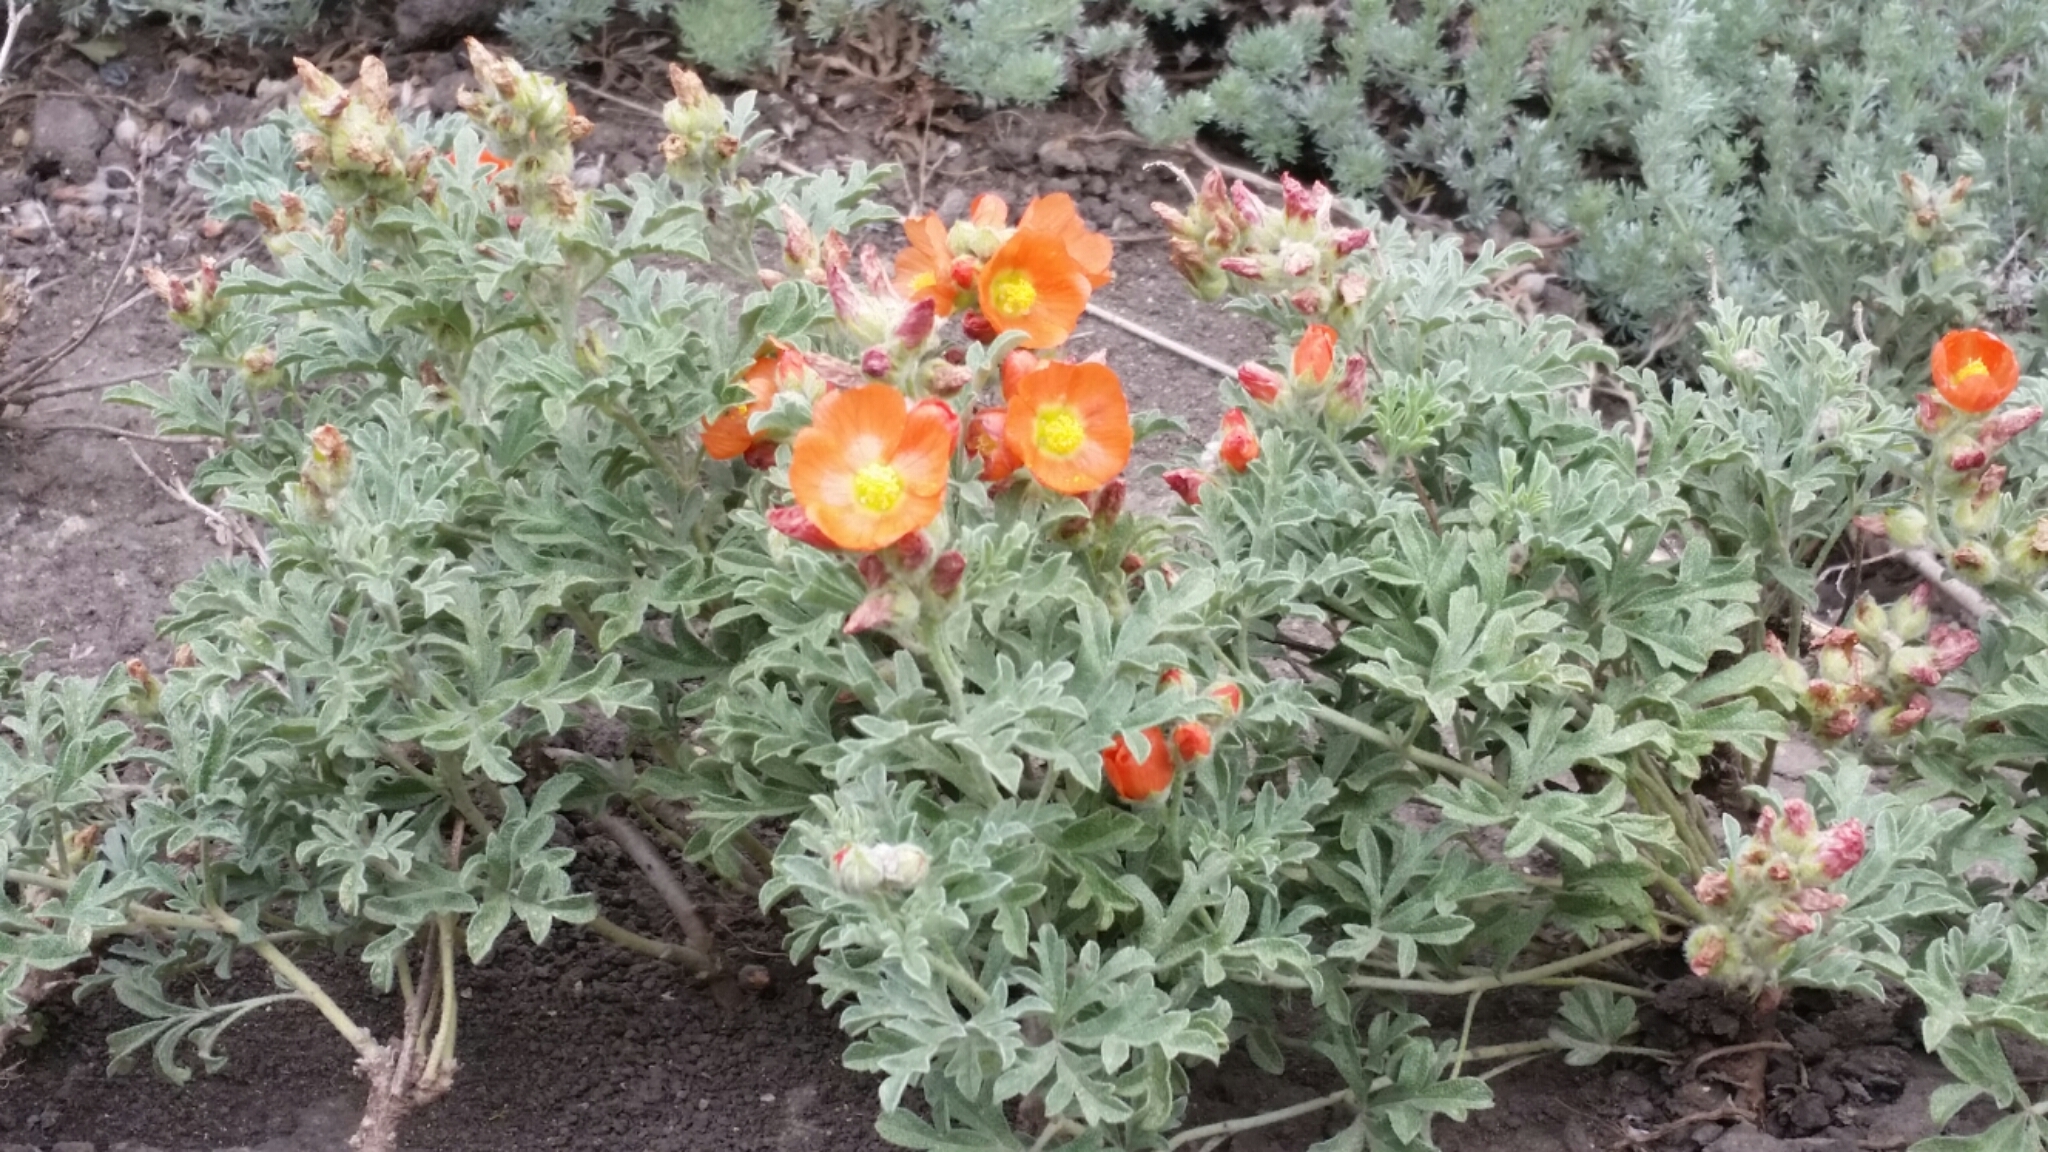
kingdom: Plantae
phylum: Tracheophyta
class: Magnoliopsida
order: Malvales
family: Malvaceae
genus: Sphaeralcea
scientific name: Sphaeralcea coccinea
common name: Moss-rose
